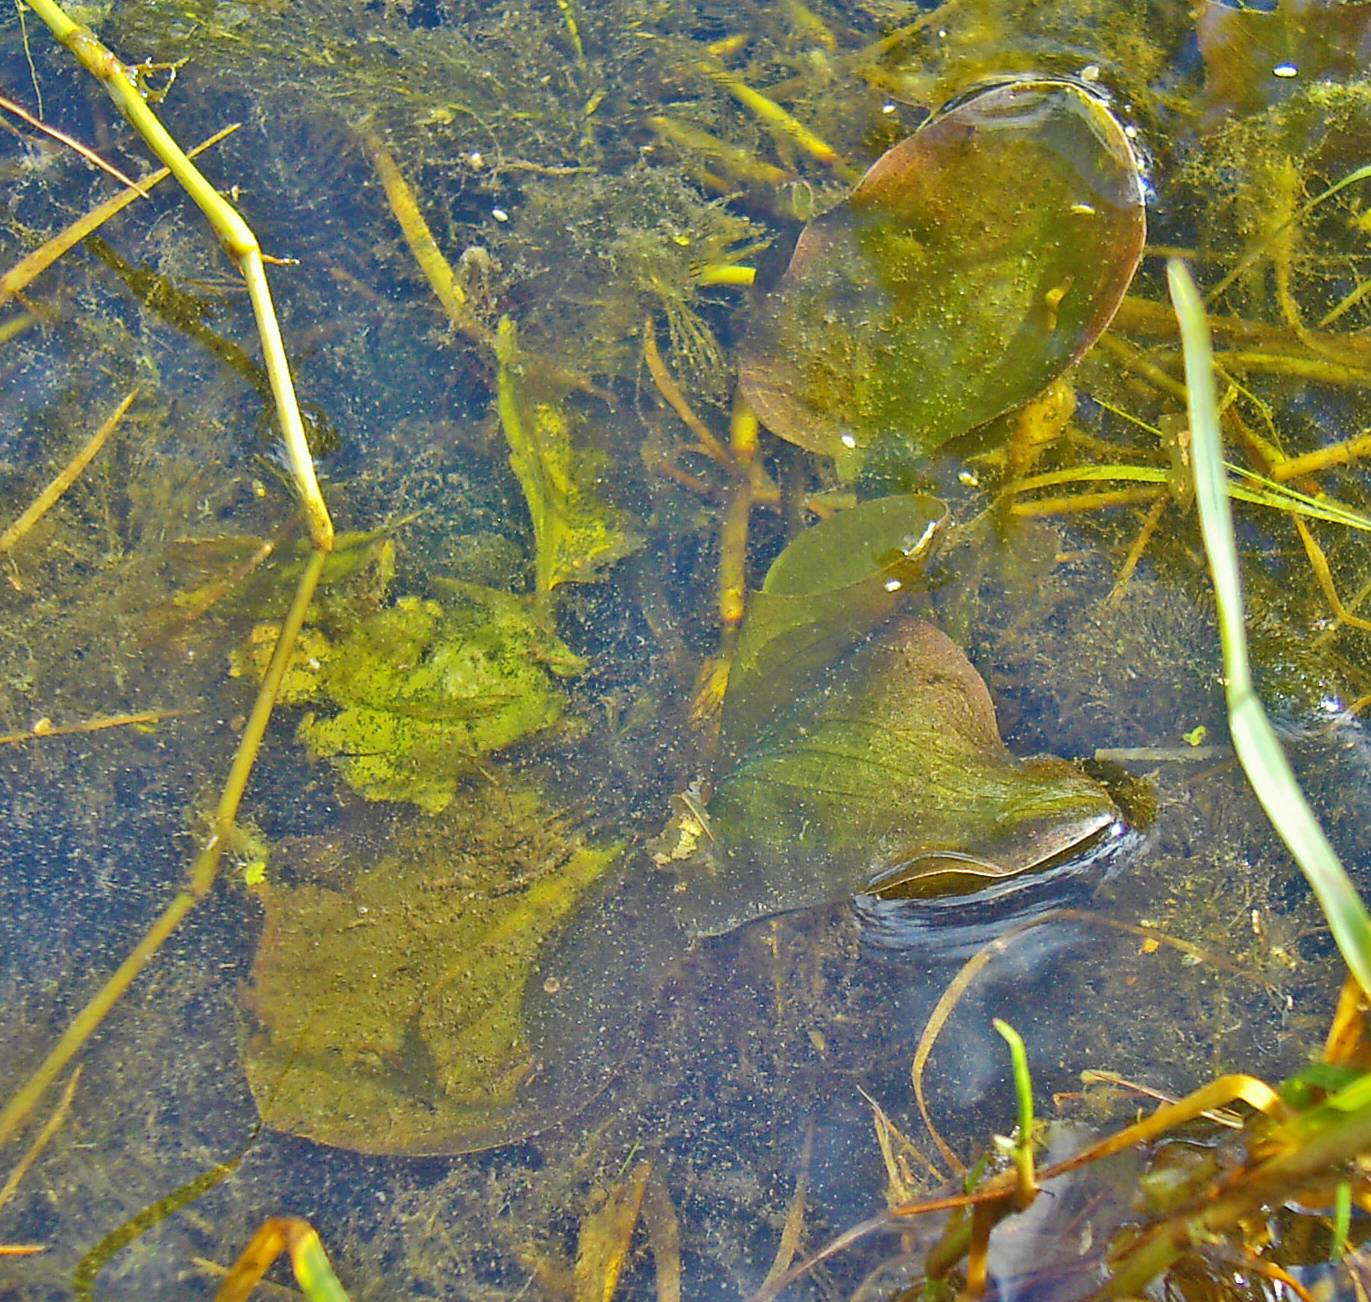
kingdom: Plantae
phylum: Tracheophyta
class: Liliopsida
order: Alismatales
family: Hydrocharitaceae
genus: Ottelia
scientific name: Ottelia alismoides
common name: Duck-lettuce
